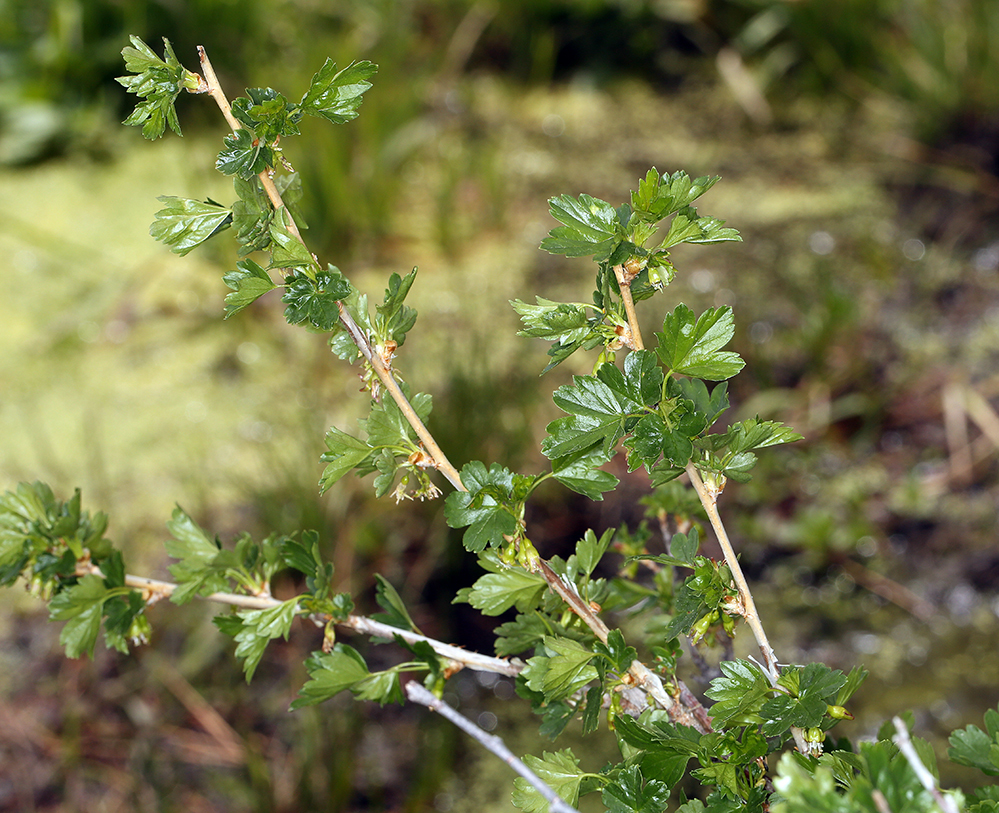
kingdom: Plantae
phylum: Tracheophyta
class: Magnoliopsida
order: Saxifragales
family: Grossulariaceae
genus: Ribes
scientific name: Ribes inerme
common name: White-stem gooseberry
